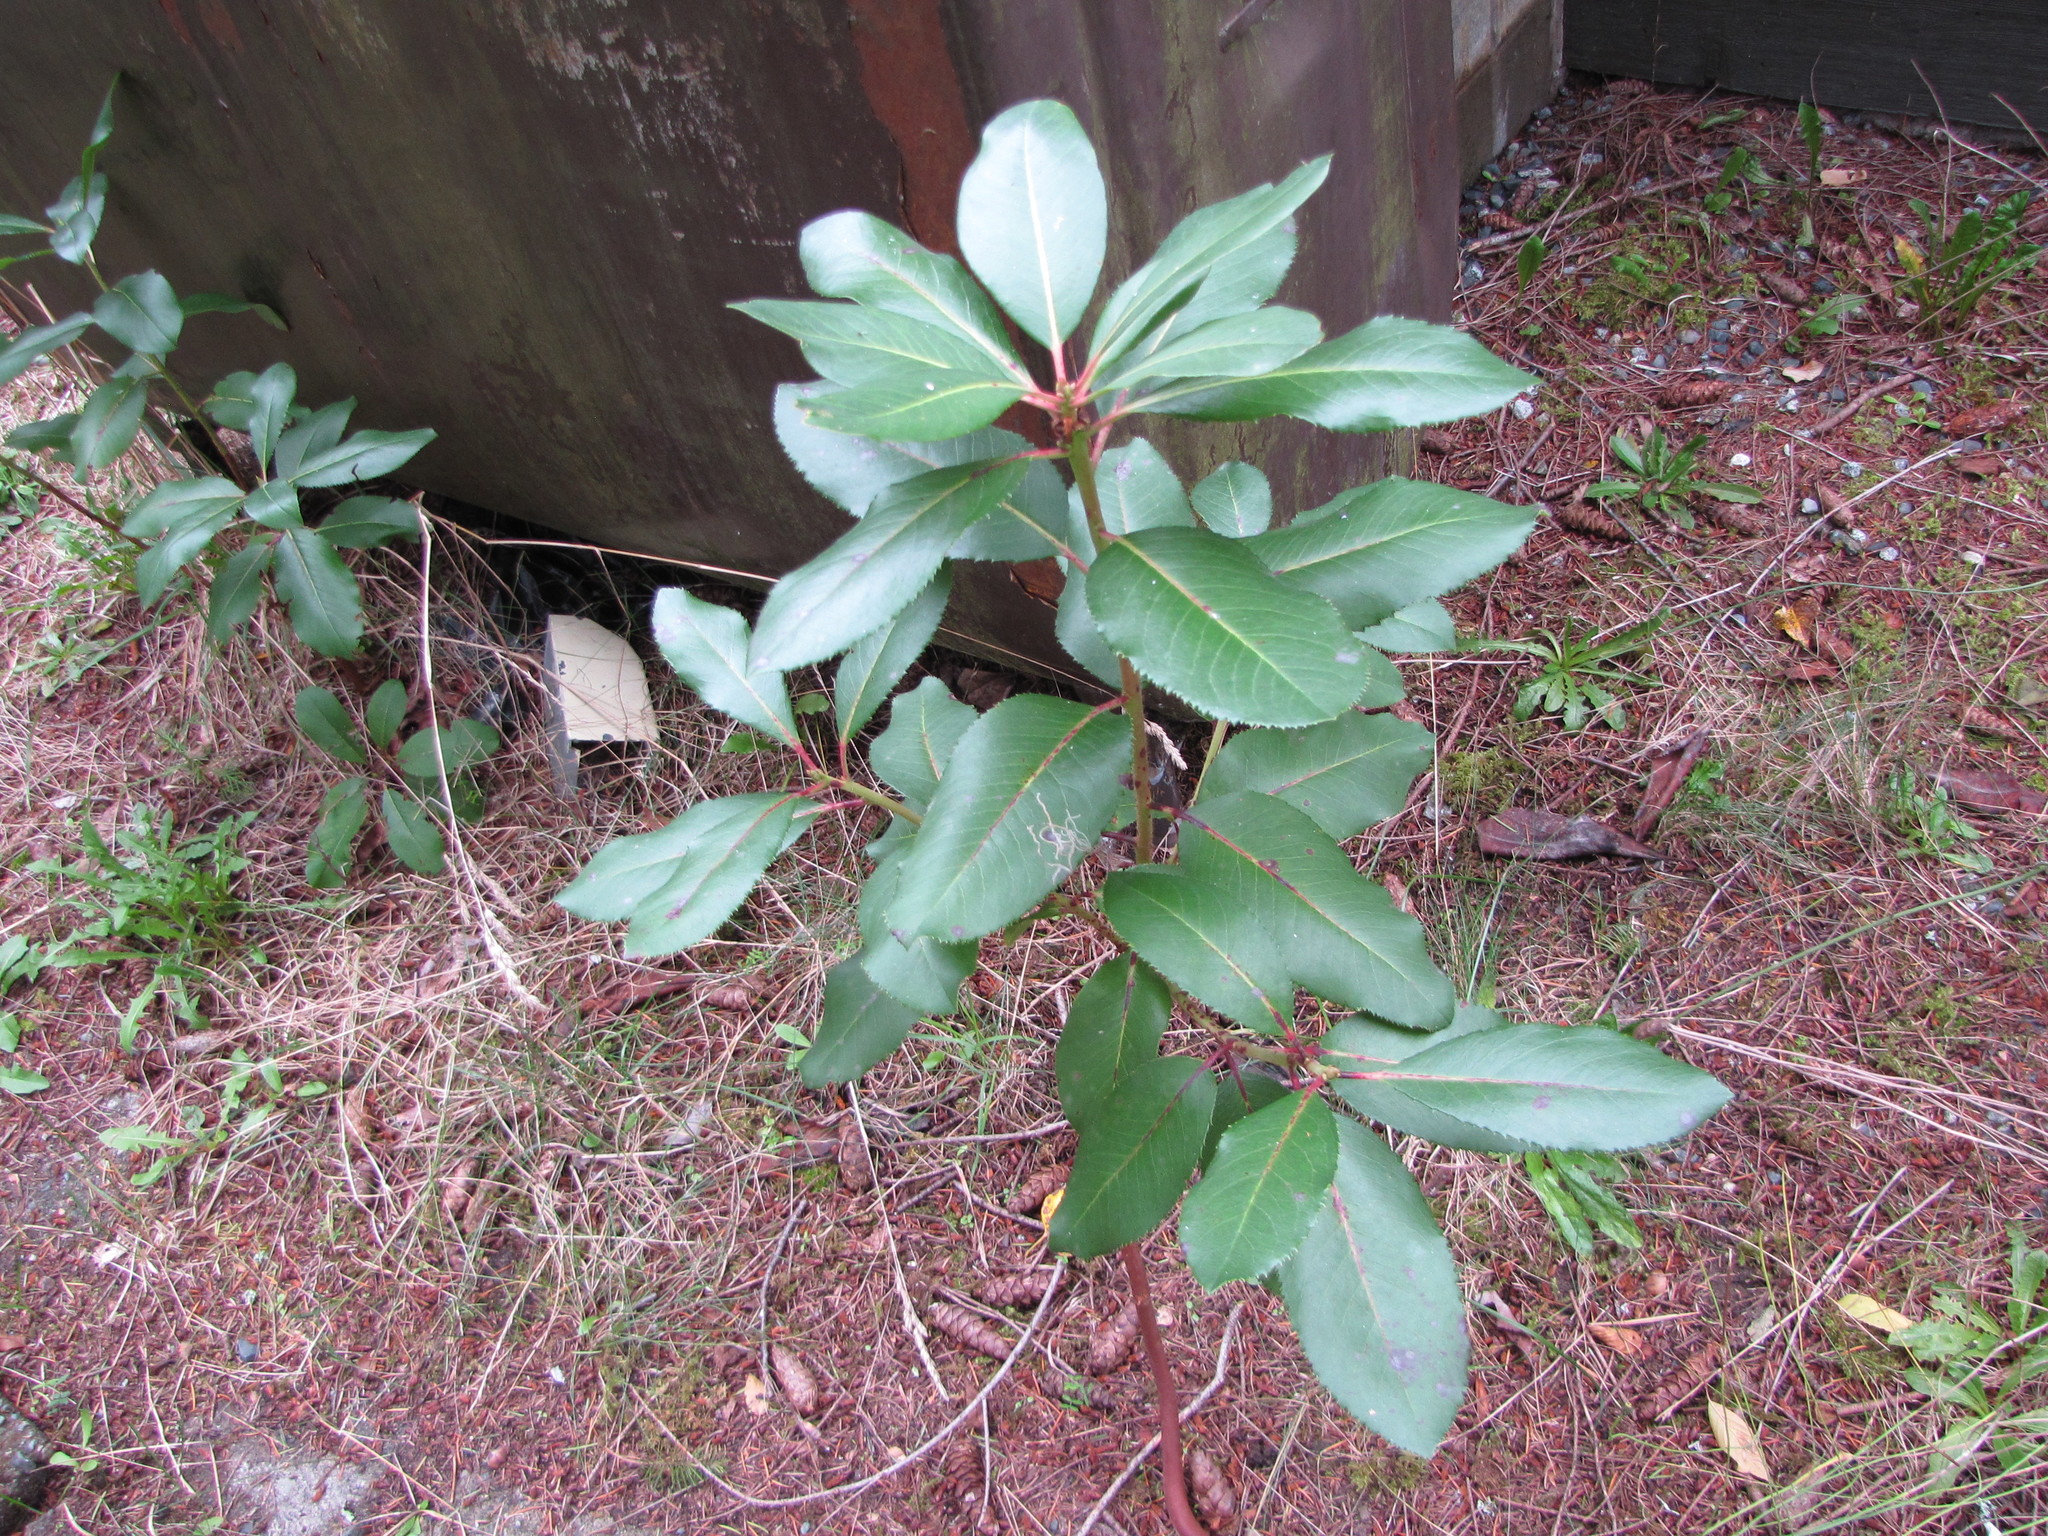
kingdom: Plantae
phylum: Tracheophyta
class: Magnoliopsida
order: Ericales
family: Ericaceae
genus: Arbutus
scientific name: Arbutus menziesii
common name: Pacific madrone
